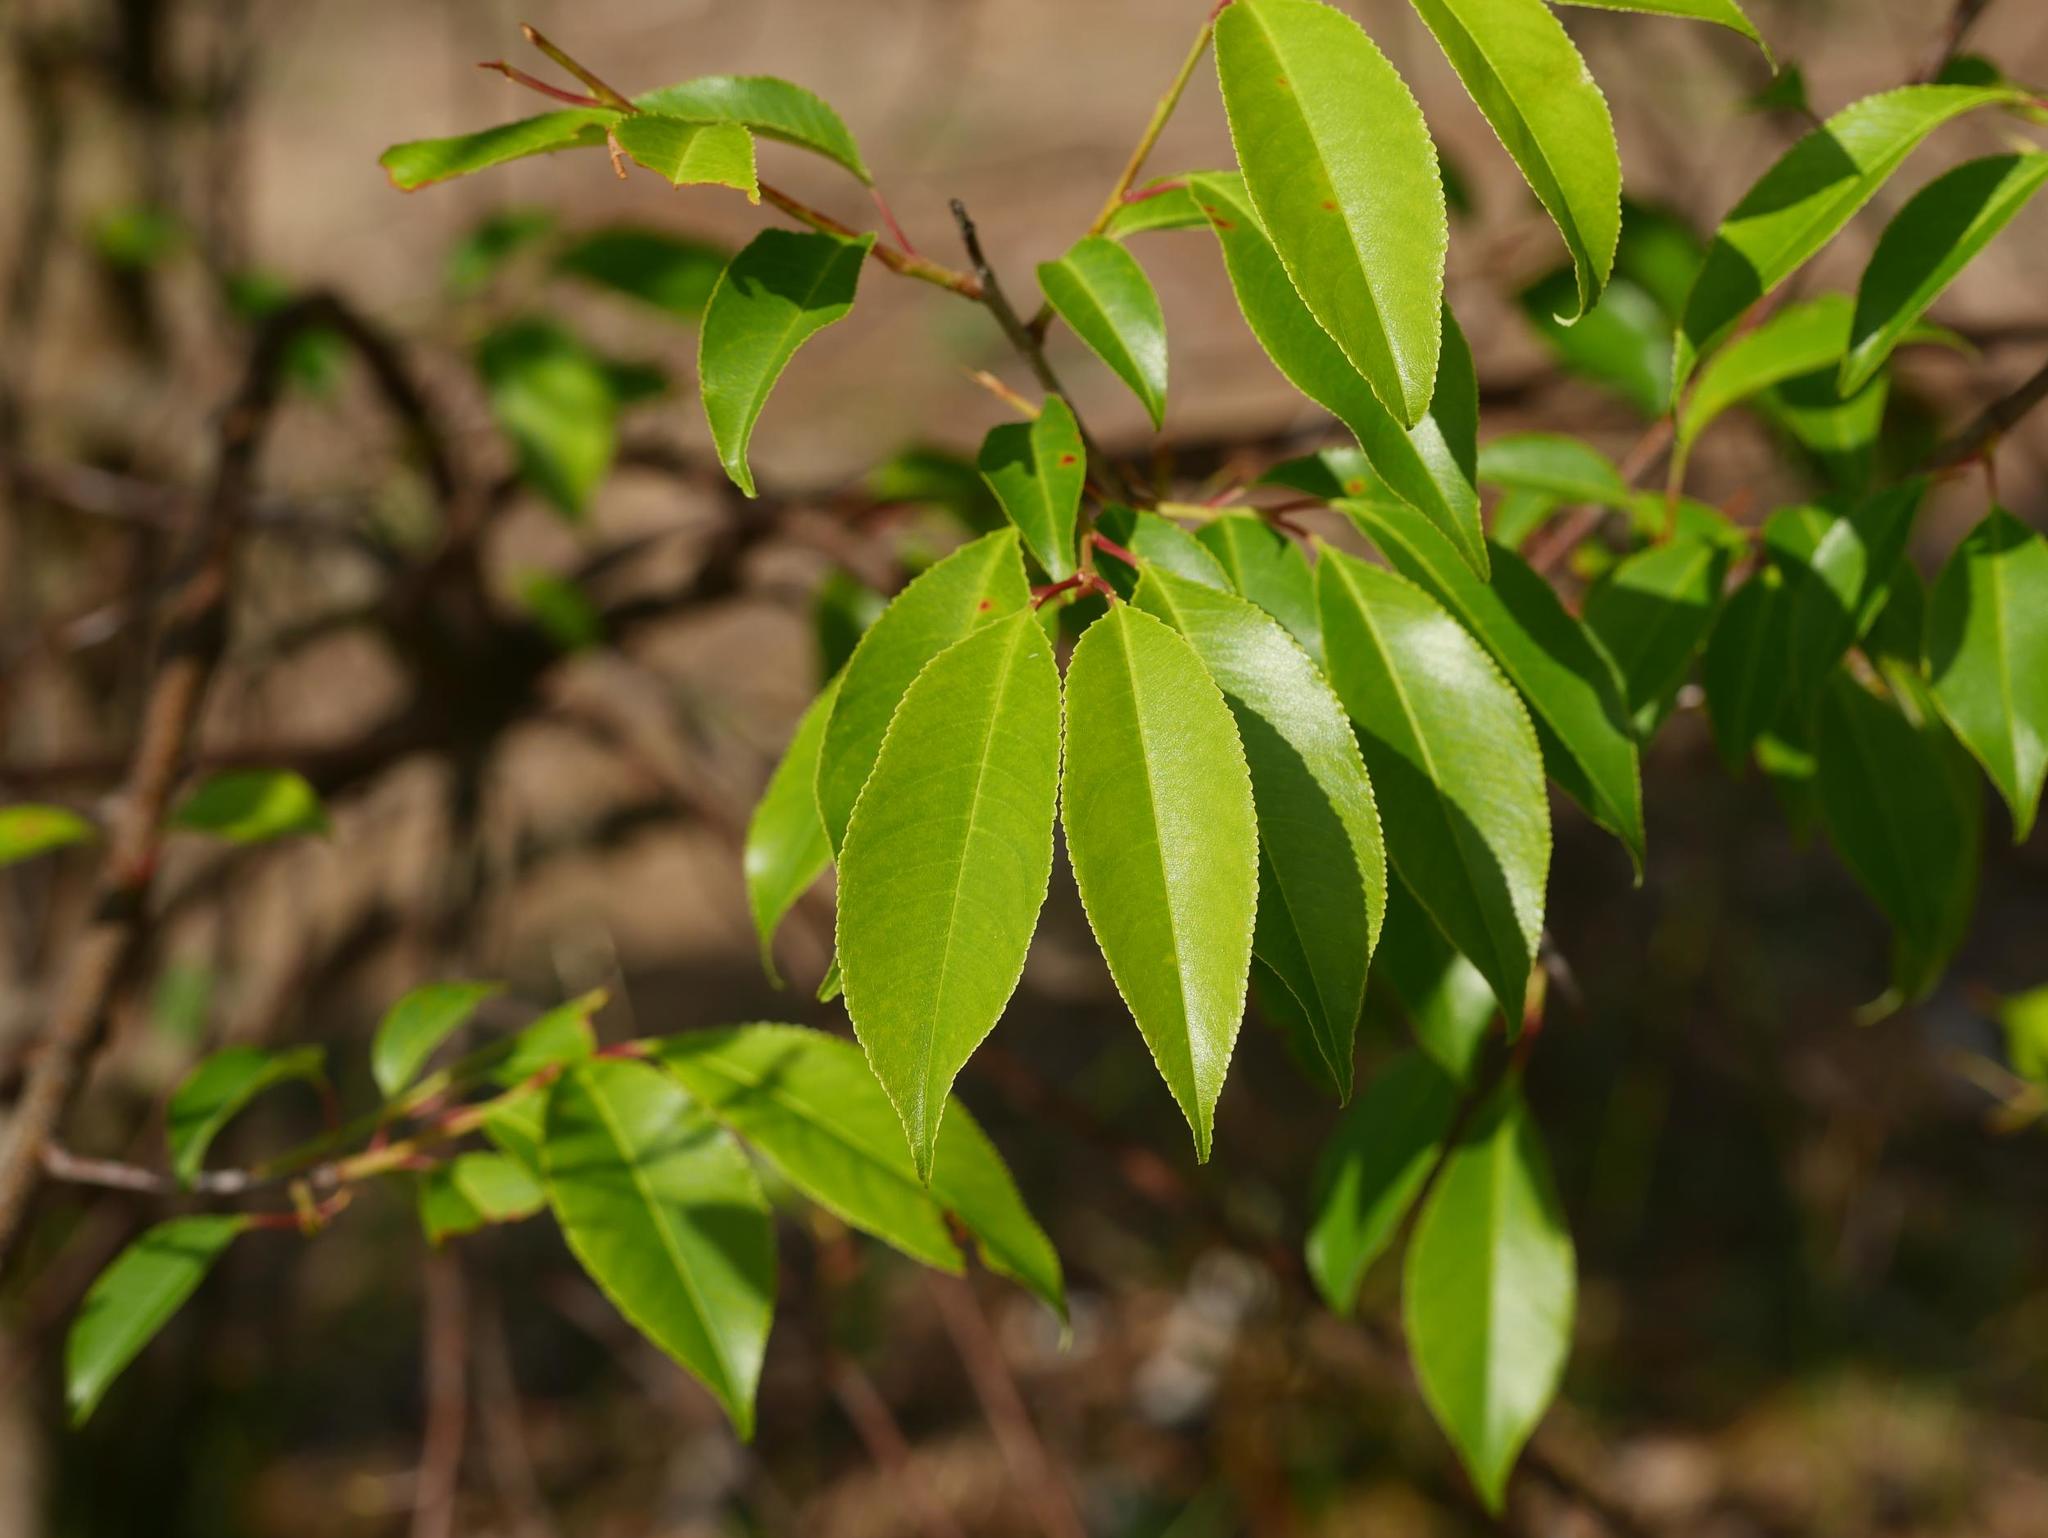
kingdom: Plantae
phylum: Tracheophyta
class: Magnoliopsida
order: Rosales
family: Rosaceae
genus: Prunus
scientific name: Prunus serotina
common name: Black cherry
